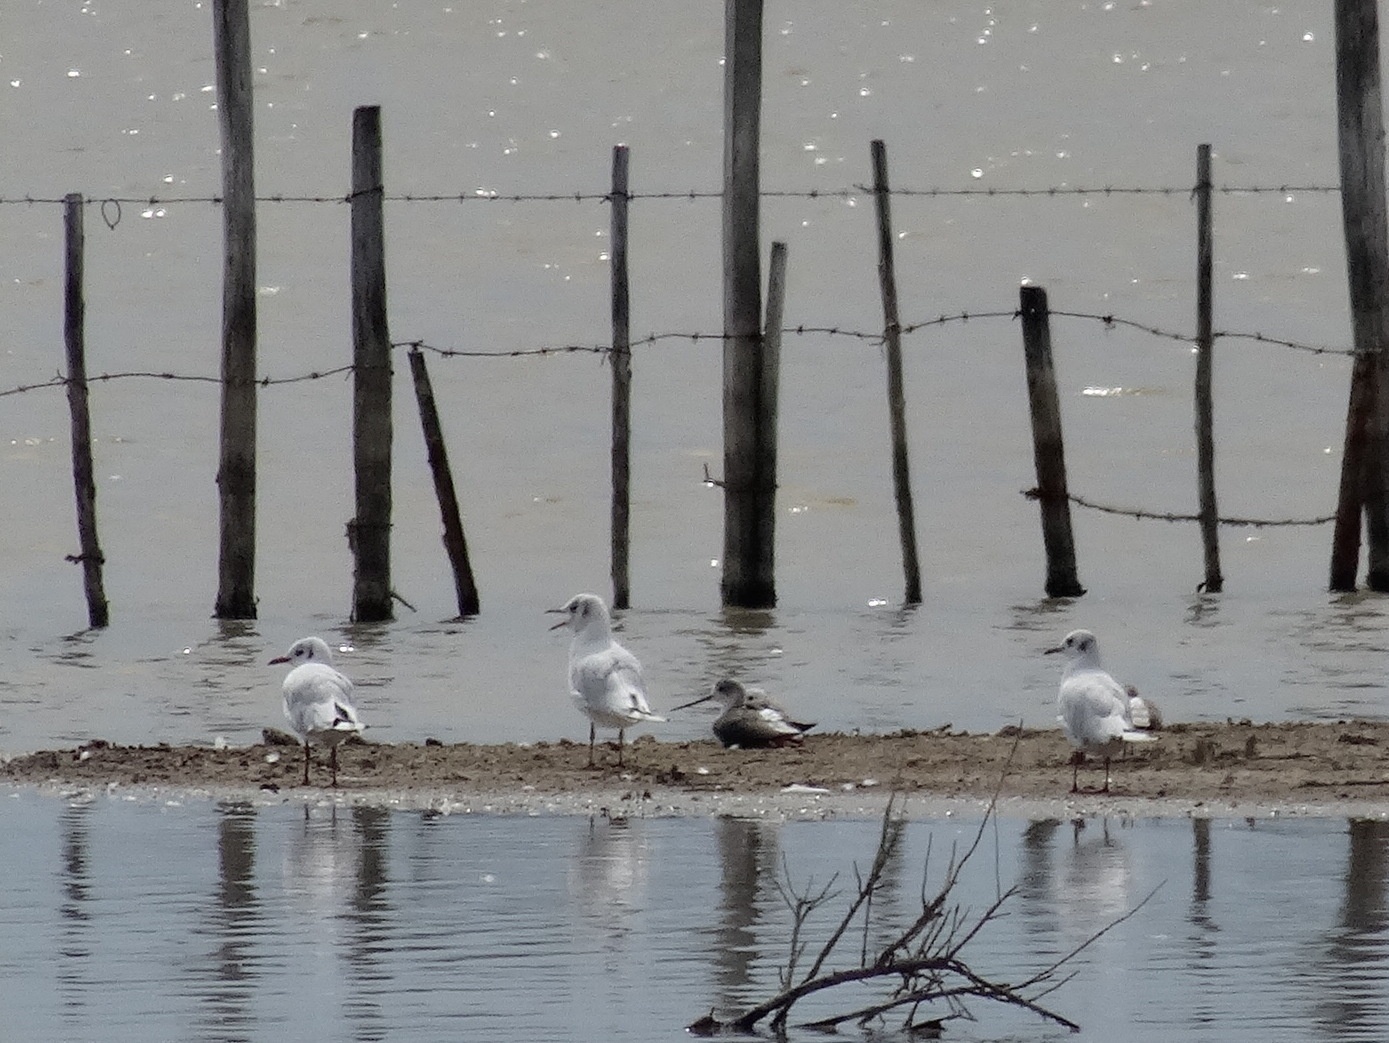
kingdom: Animalia
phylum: Chordata
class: Aves
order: Charadriiformes
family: Laridae
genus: Chroicocephalus
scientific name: Chroicocephalus ridibundus
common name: Black-headed gull
